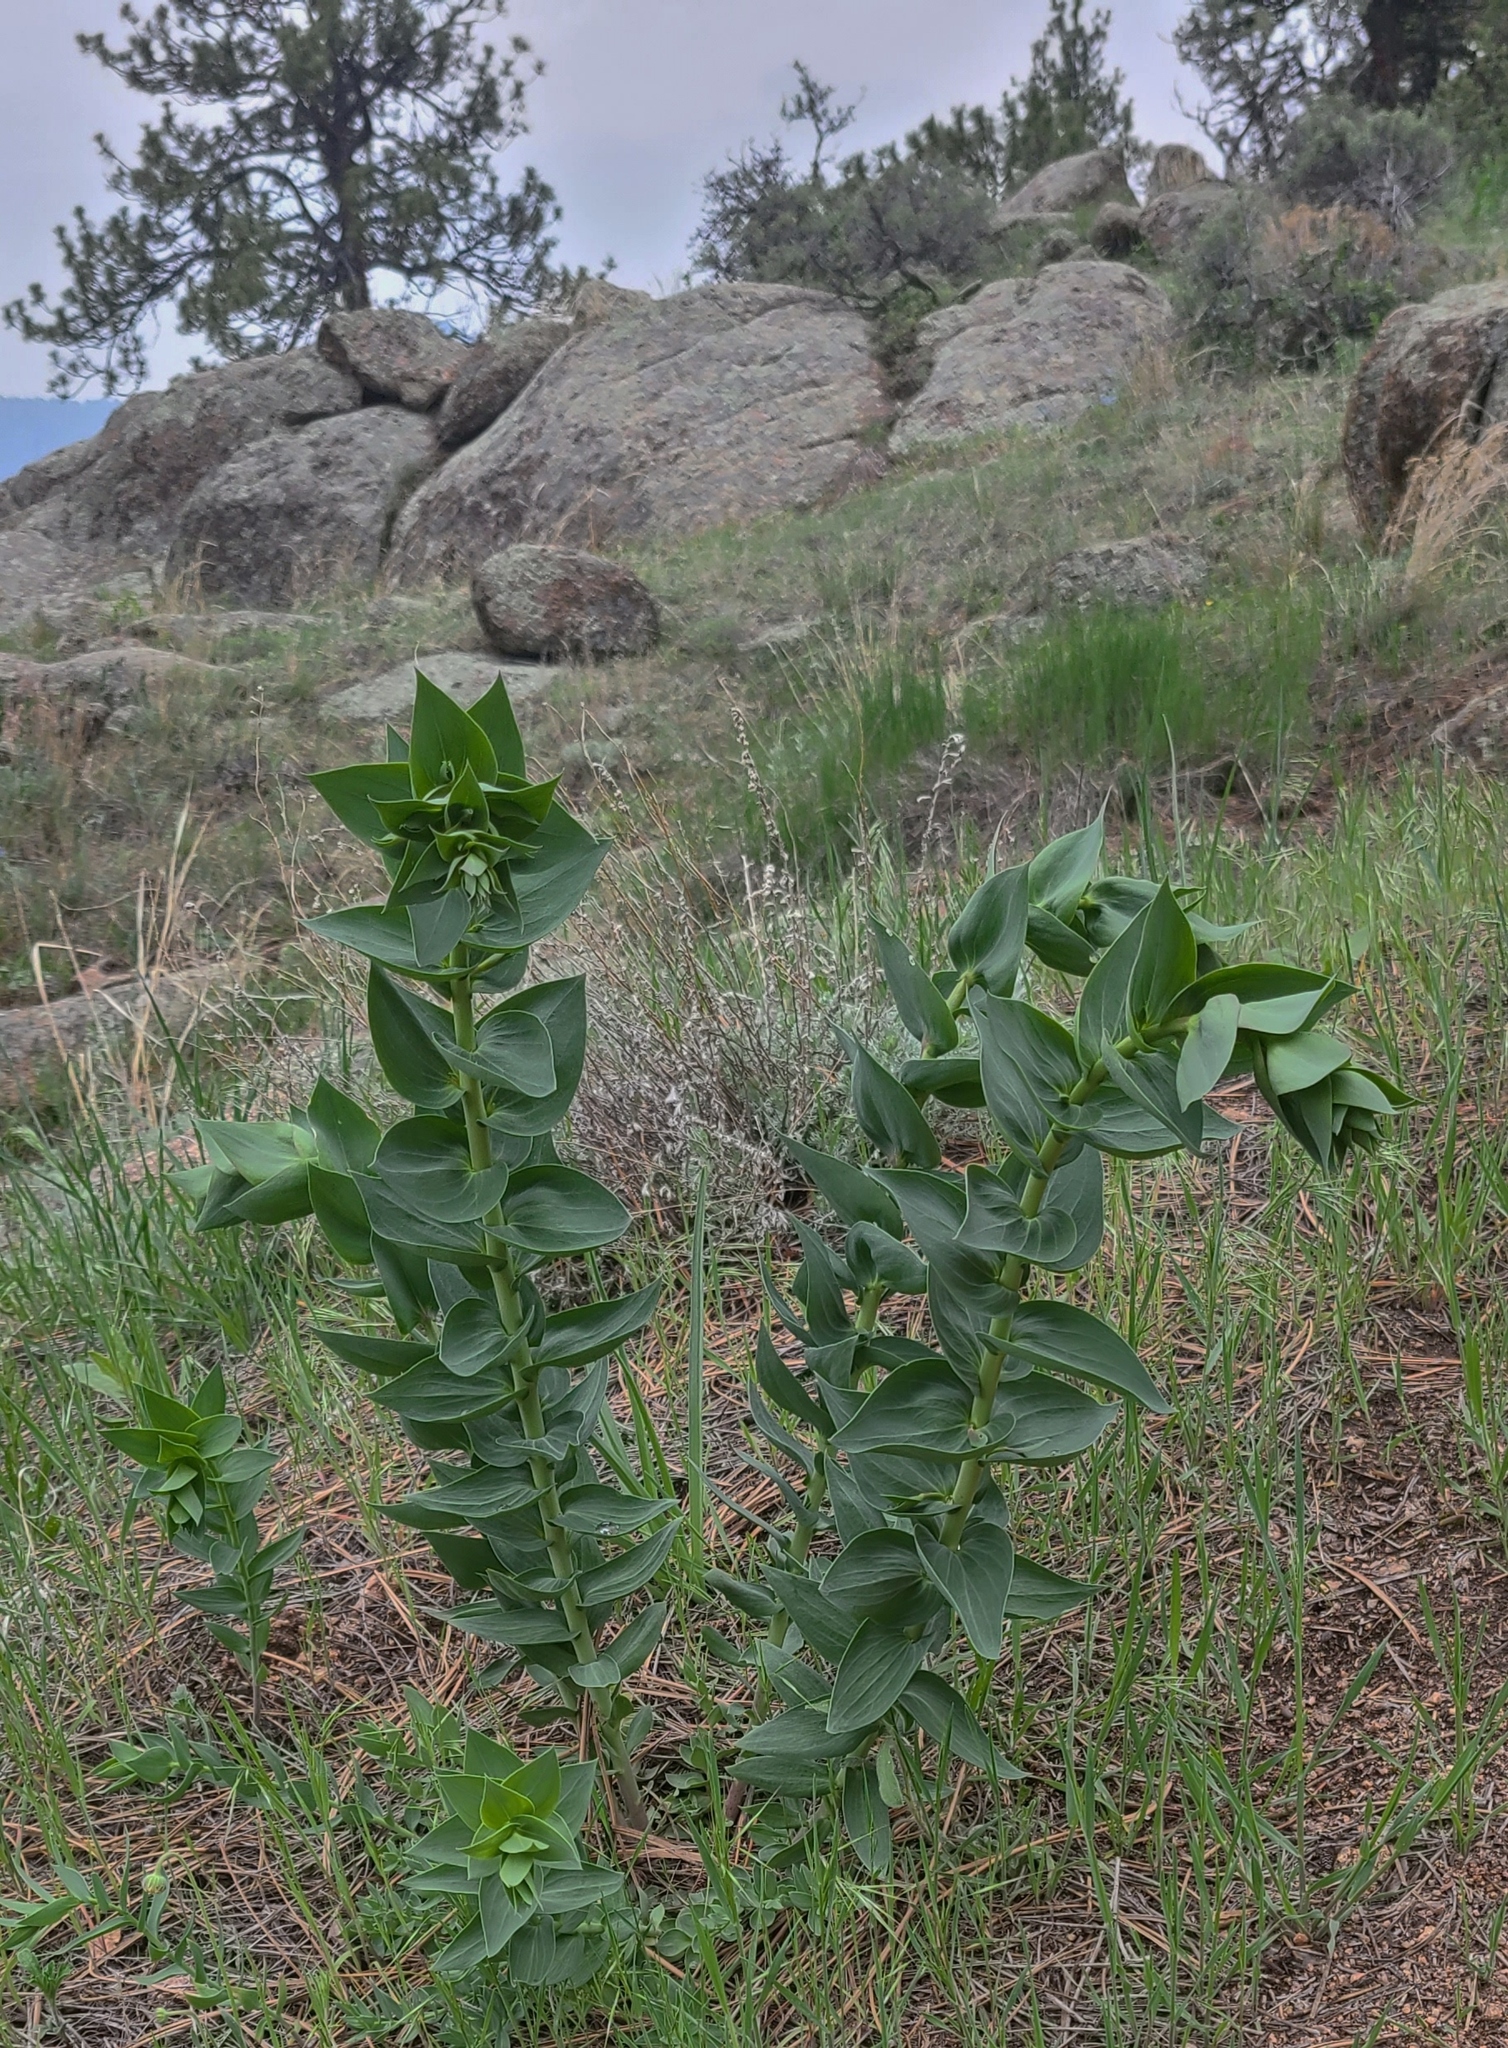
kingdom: Plantae
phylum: Tracheophyta
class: Magnoliopsida
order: Lamiales
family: Plantaginaceae
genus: Linaria
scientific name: Linaria dalmatica
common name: Dalmatian toadflax
